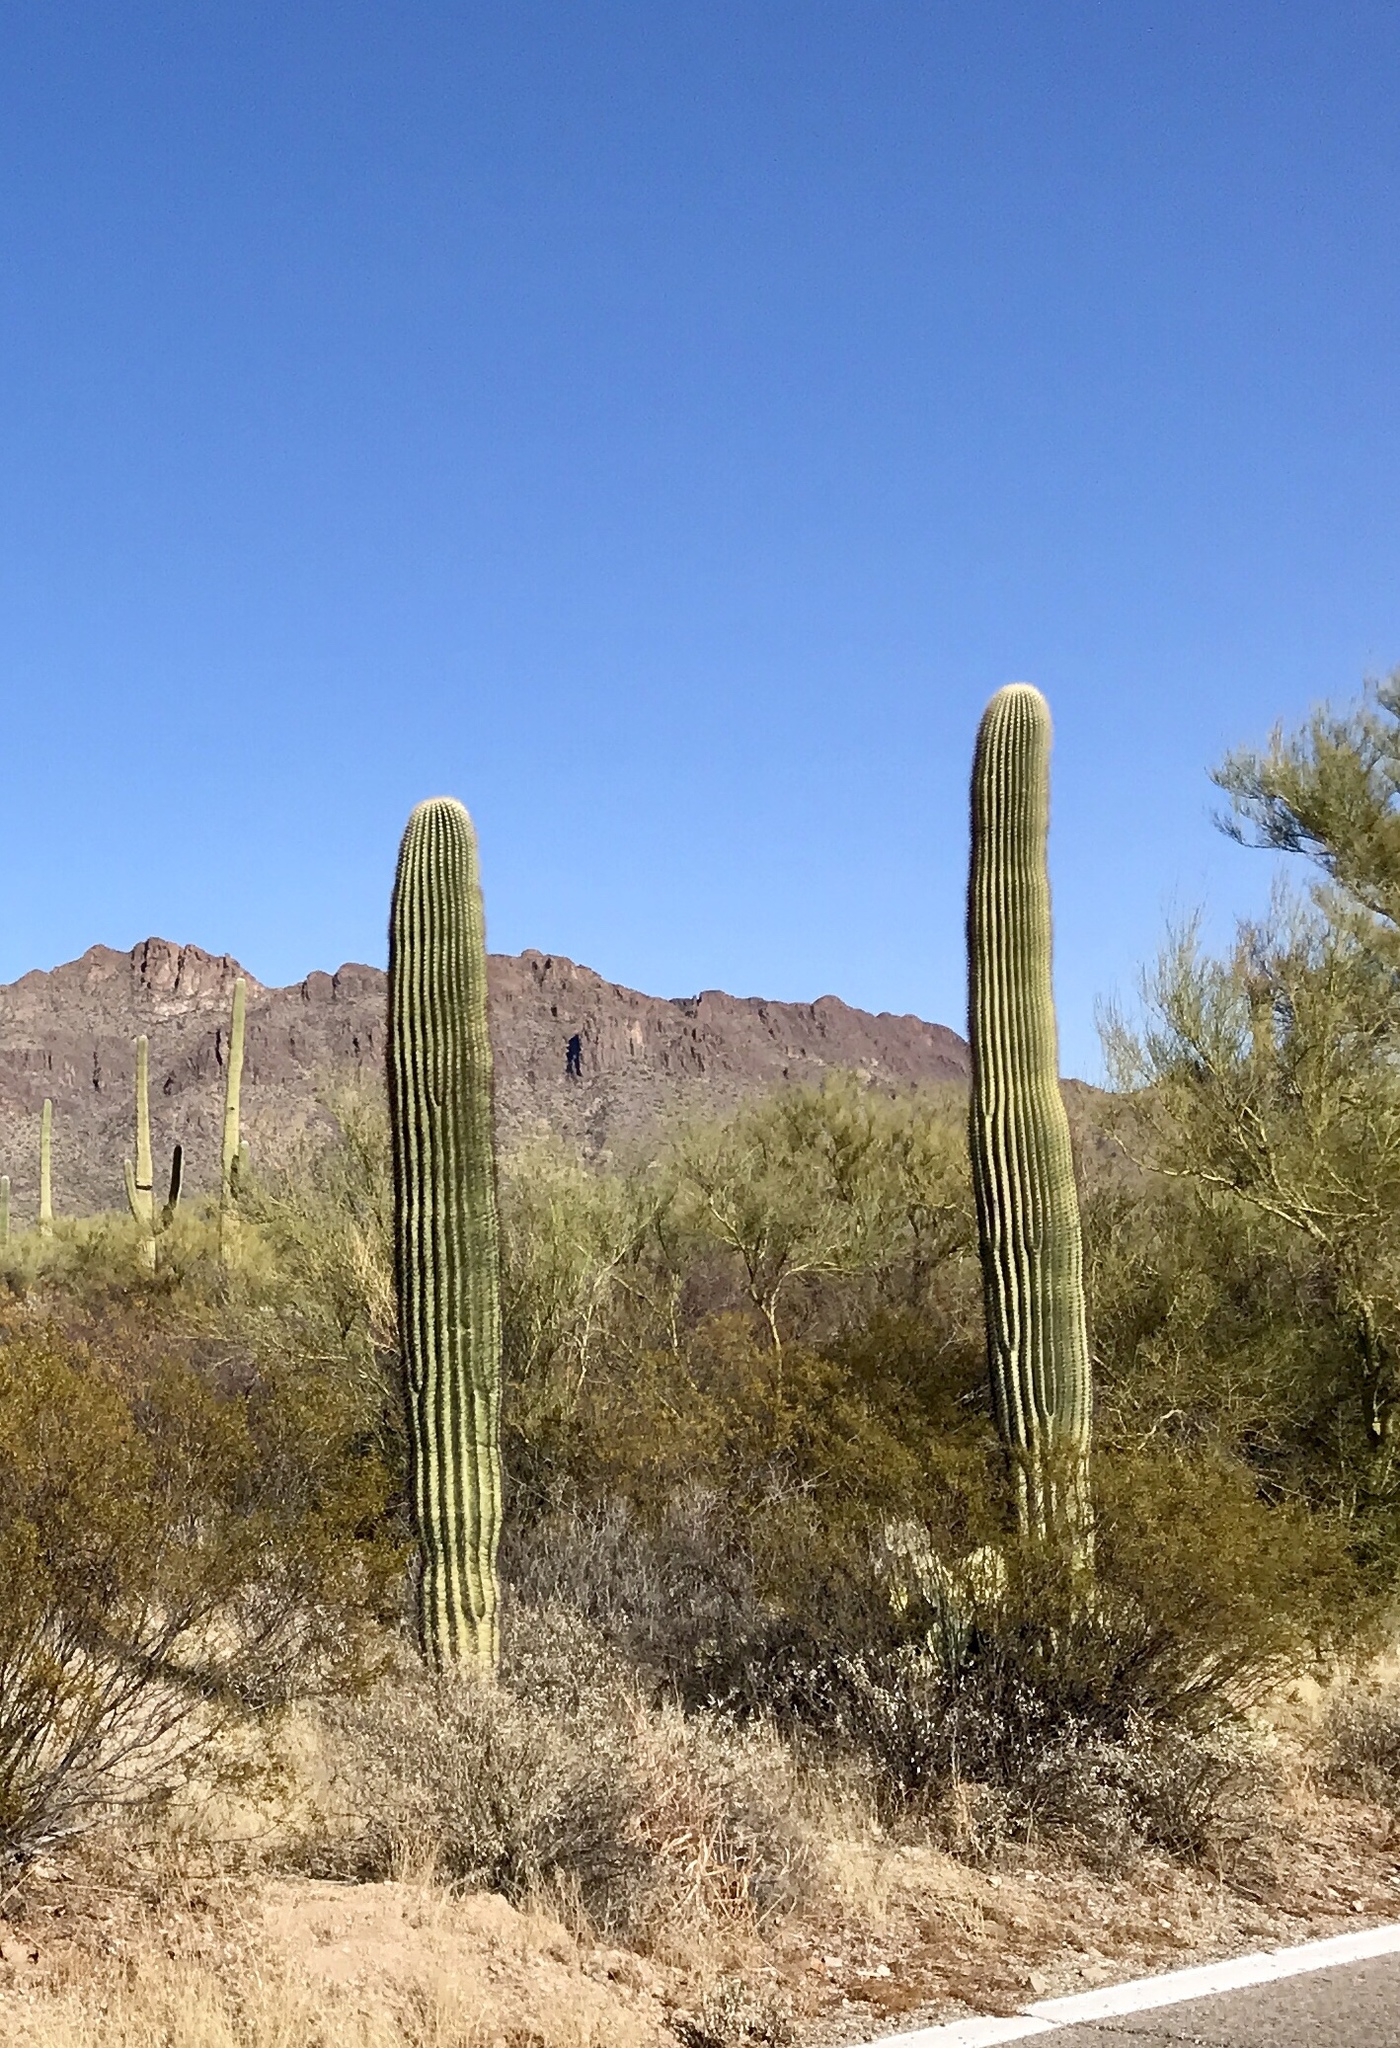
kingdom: Plantae
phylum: Tracheophyta
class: Magnoliopsida
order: Caryophyllales
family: Cactaceae
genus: Carnegiea
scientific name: Carnegiea gigantea
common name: Saguaro
